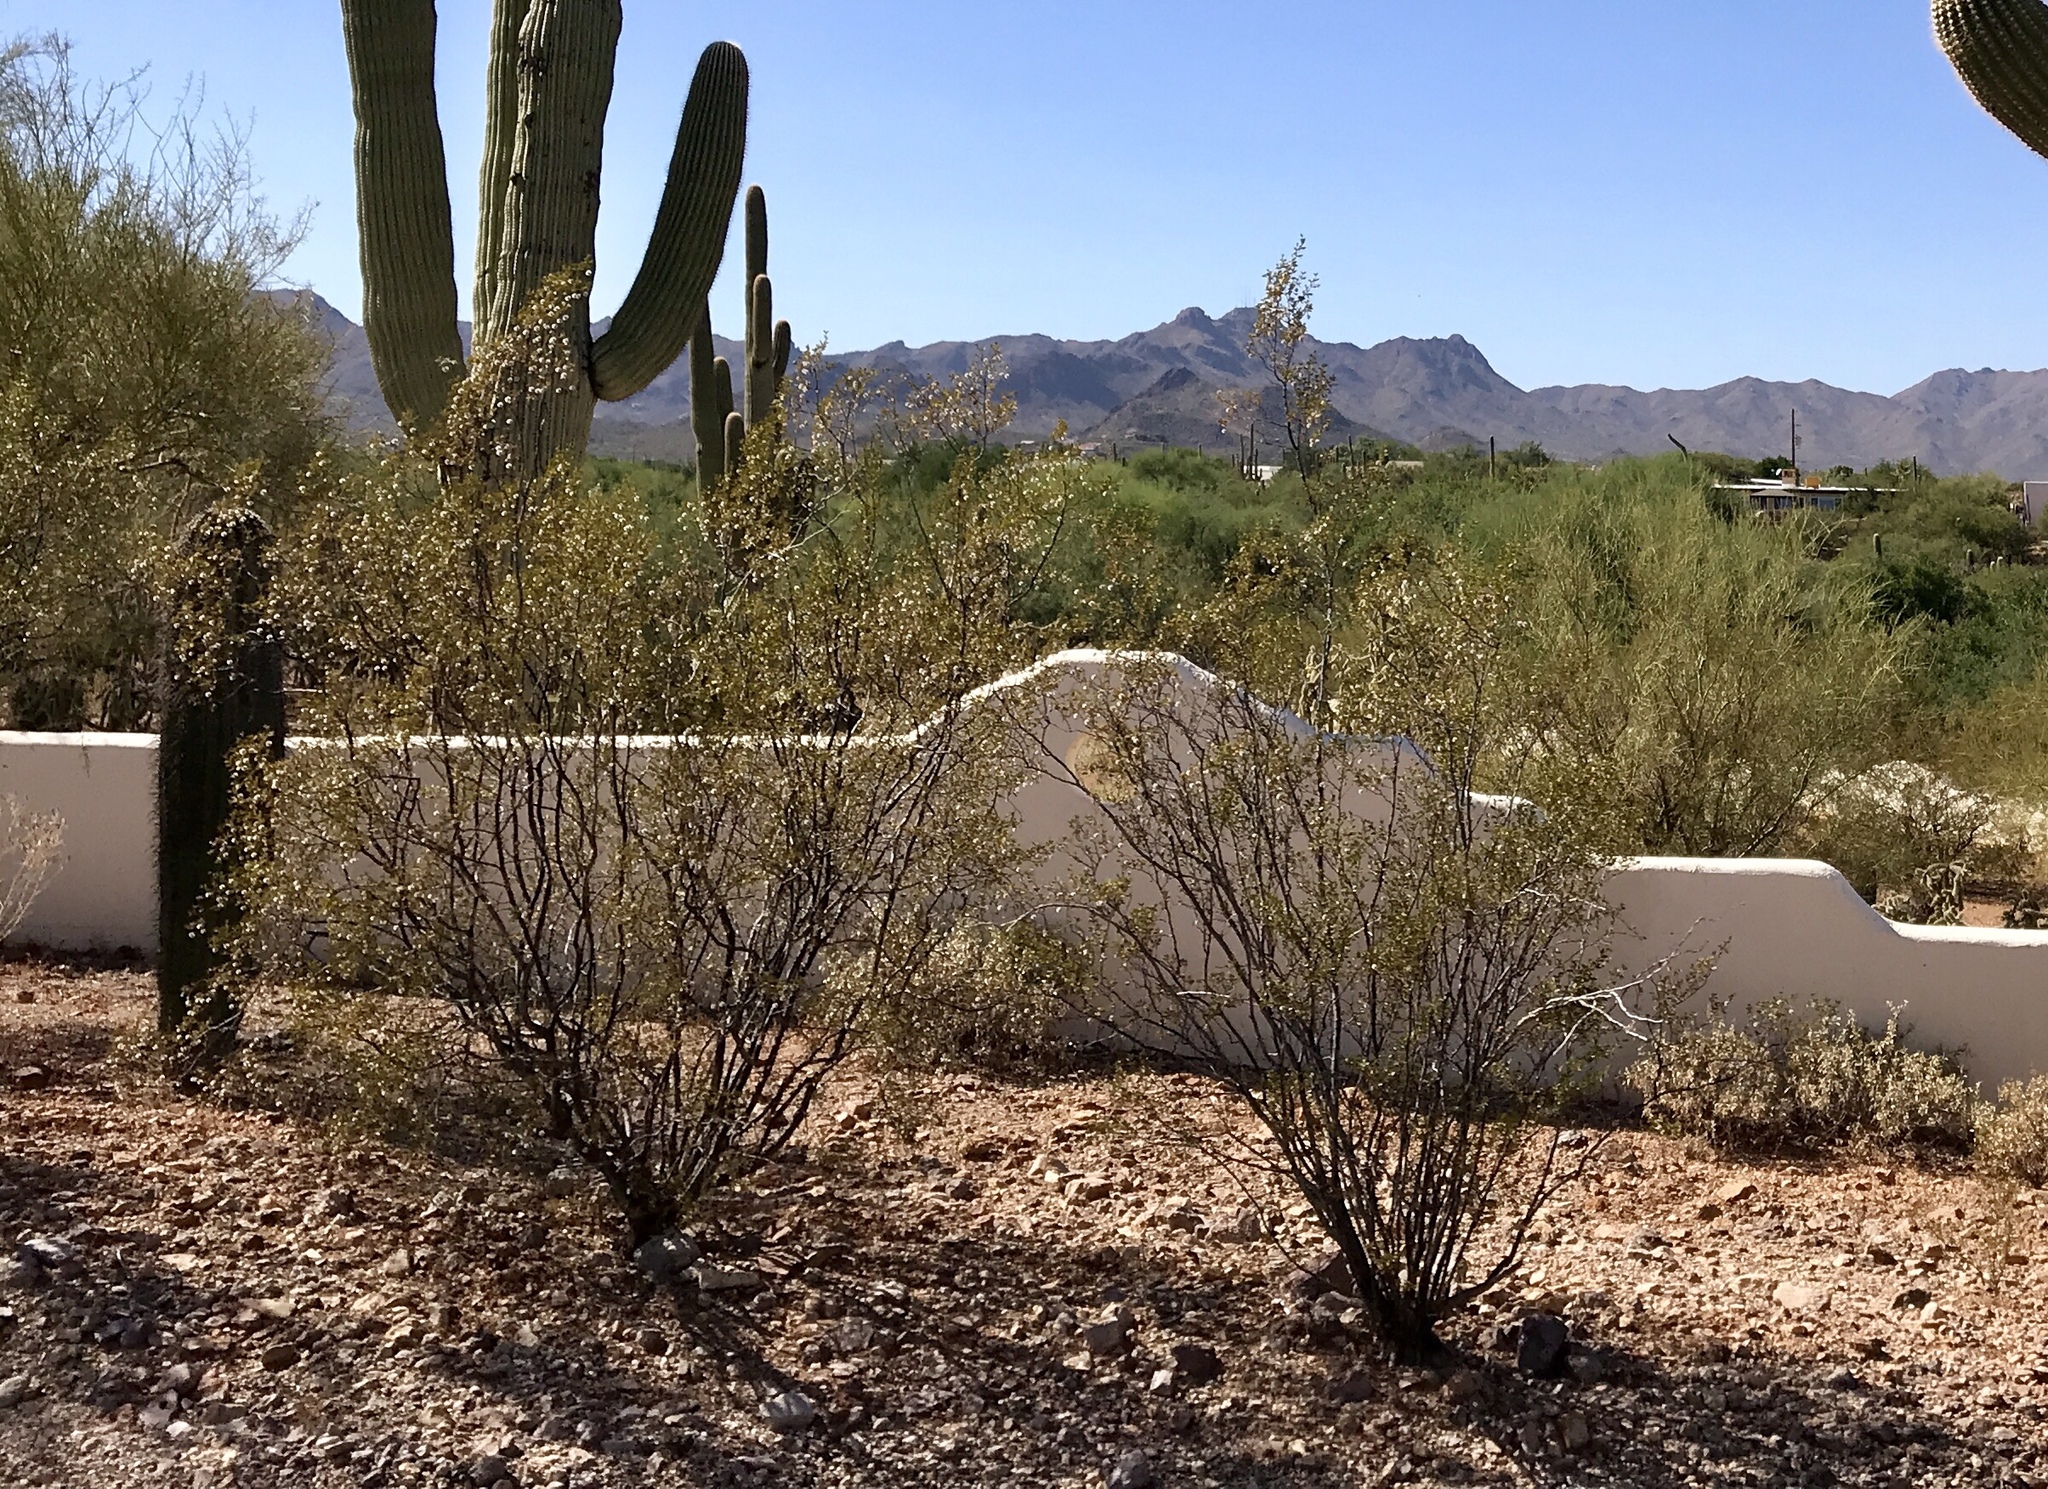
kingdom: Plantae
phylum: Tracheophyta
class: Magnoliopsida
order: Zygophyllales
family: Zygophyllaceae
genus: Larrea
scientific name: Larrea tridentata
